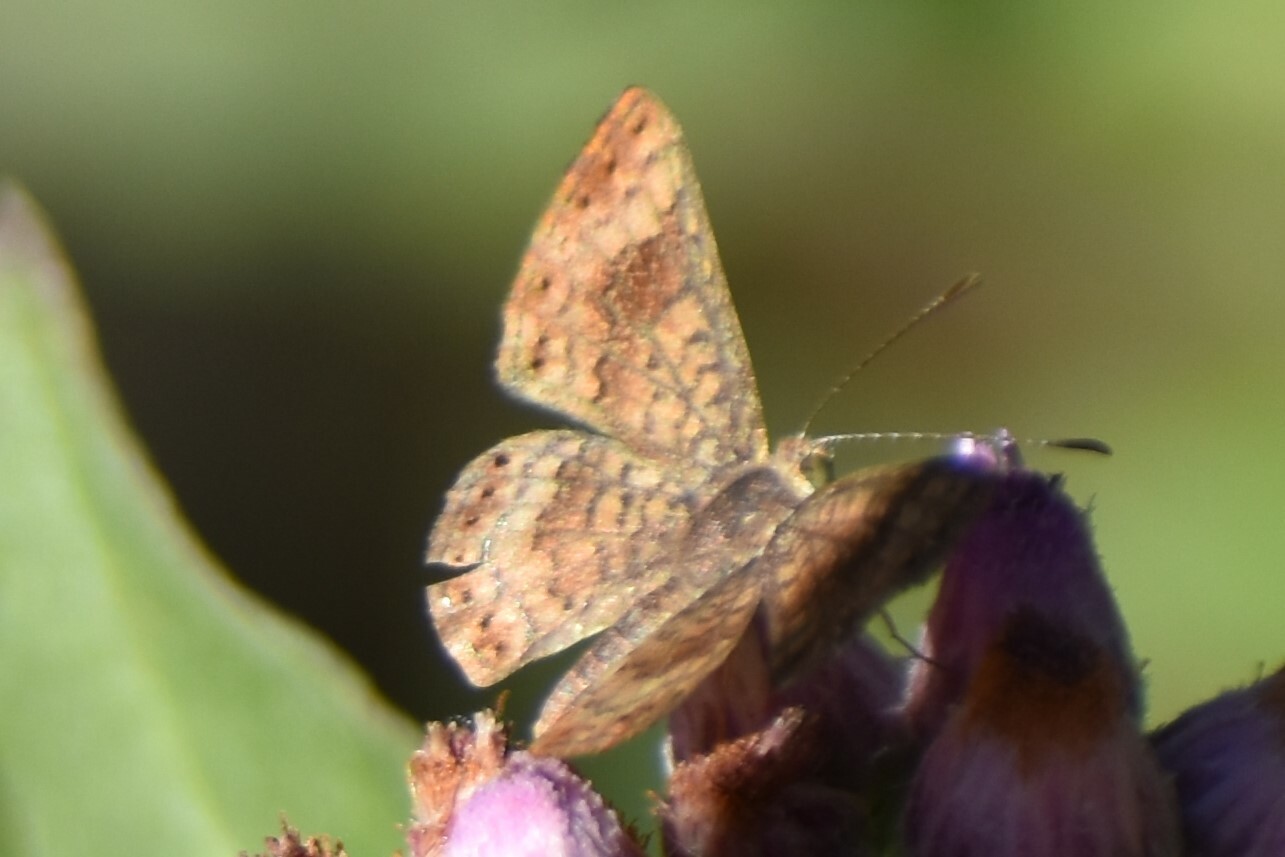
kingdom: Animalia
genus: Calephelis
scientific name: Calephelis nemesis
